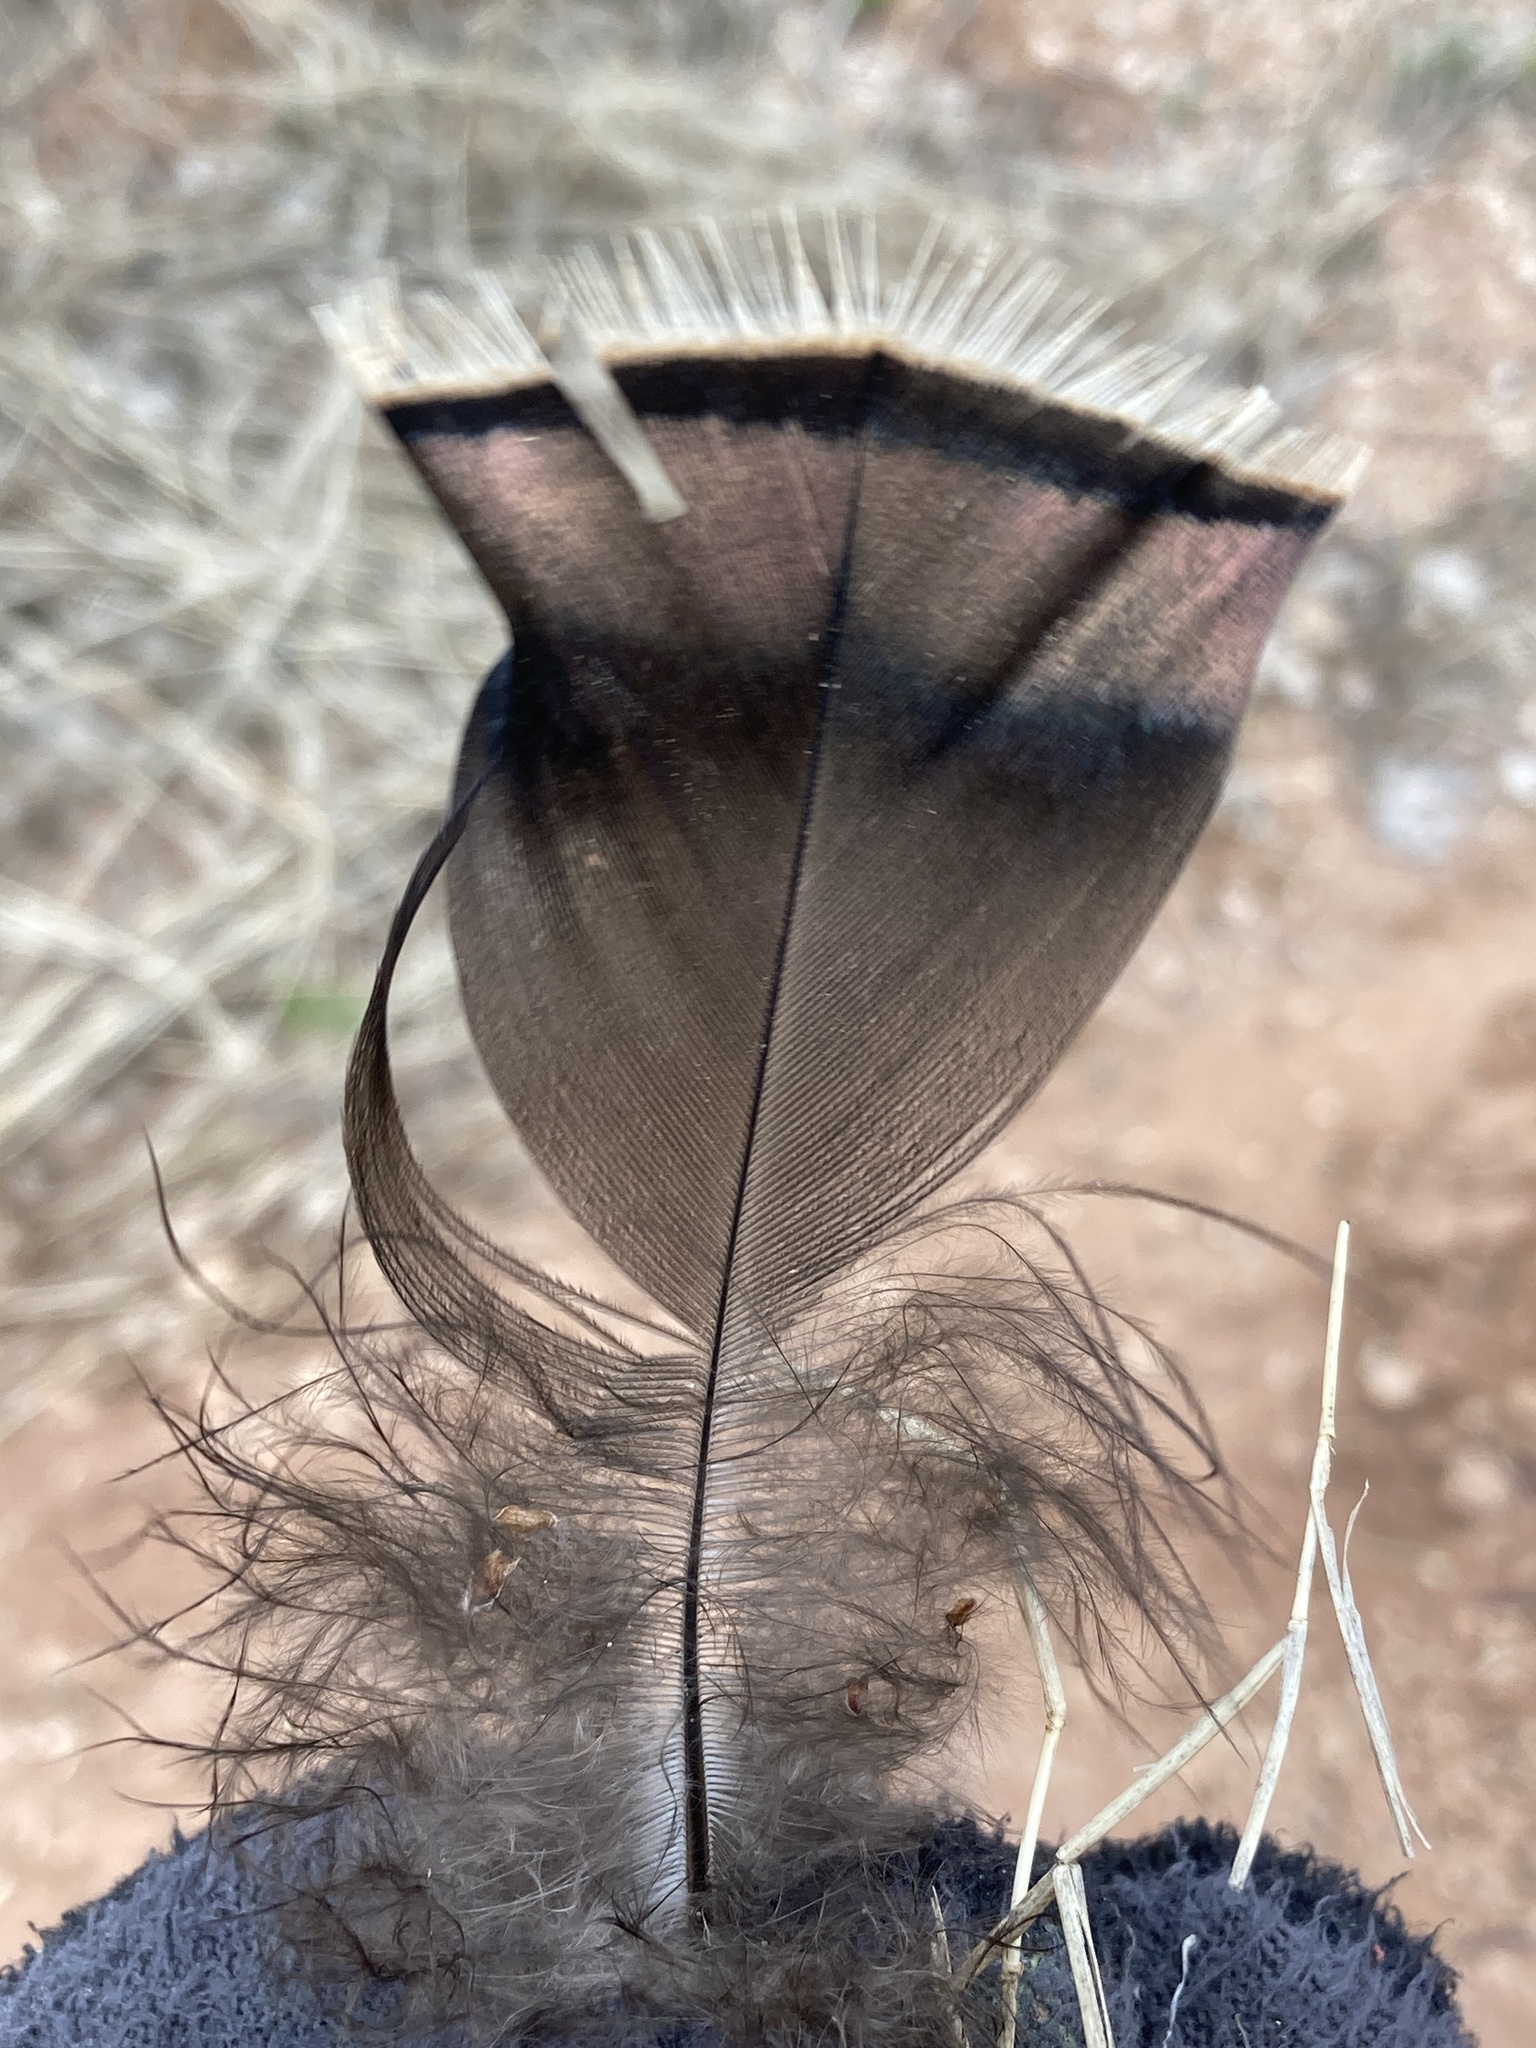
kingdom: Animalia
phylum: Chordata
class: Aves
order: Galliformes
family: Phasianidae
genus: Meleagris
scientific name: Meleagris gallopavo
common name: Wild turkey
